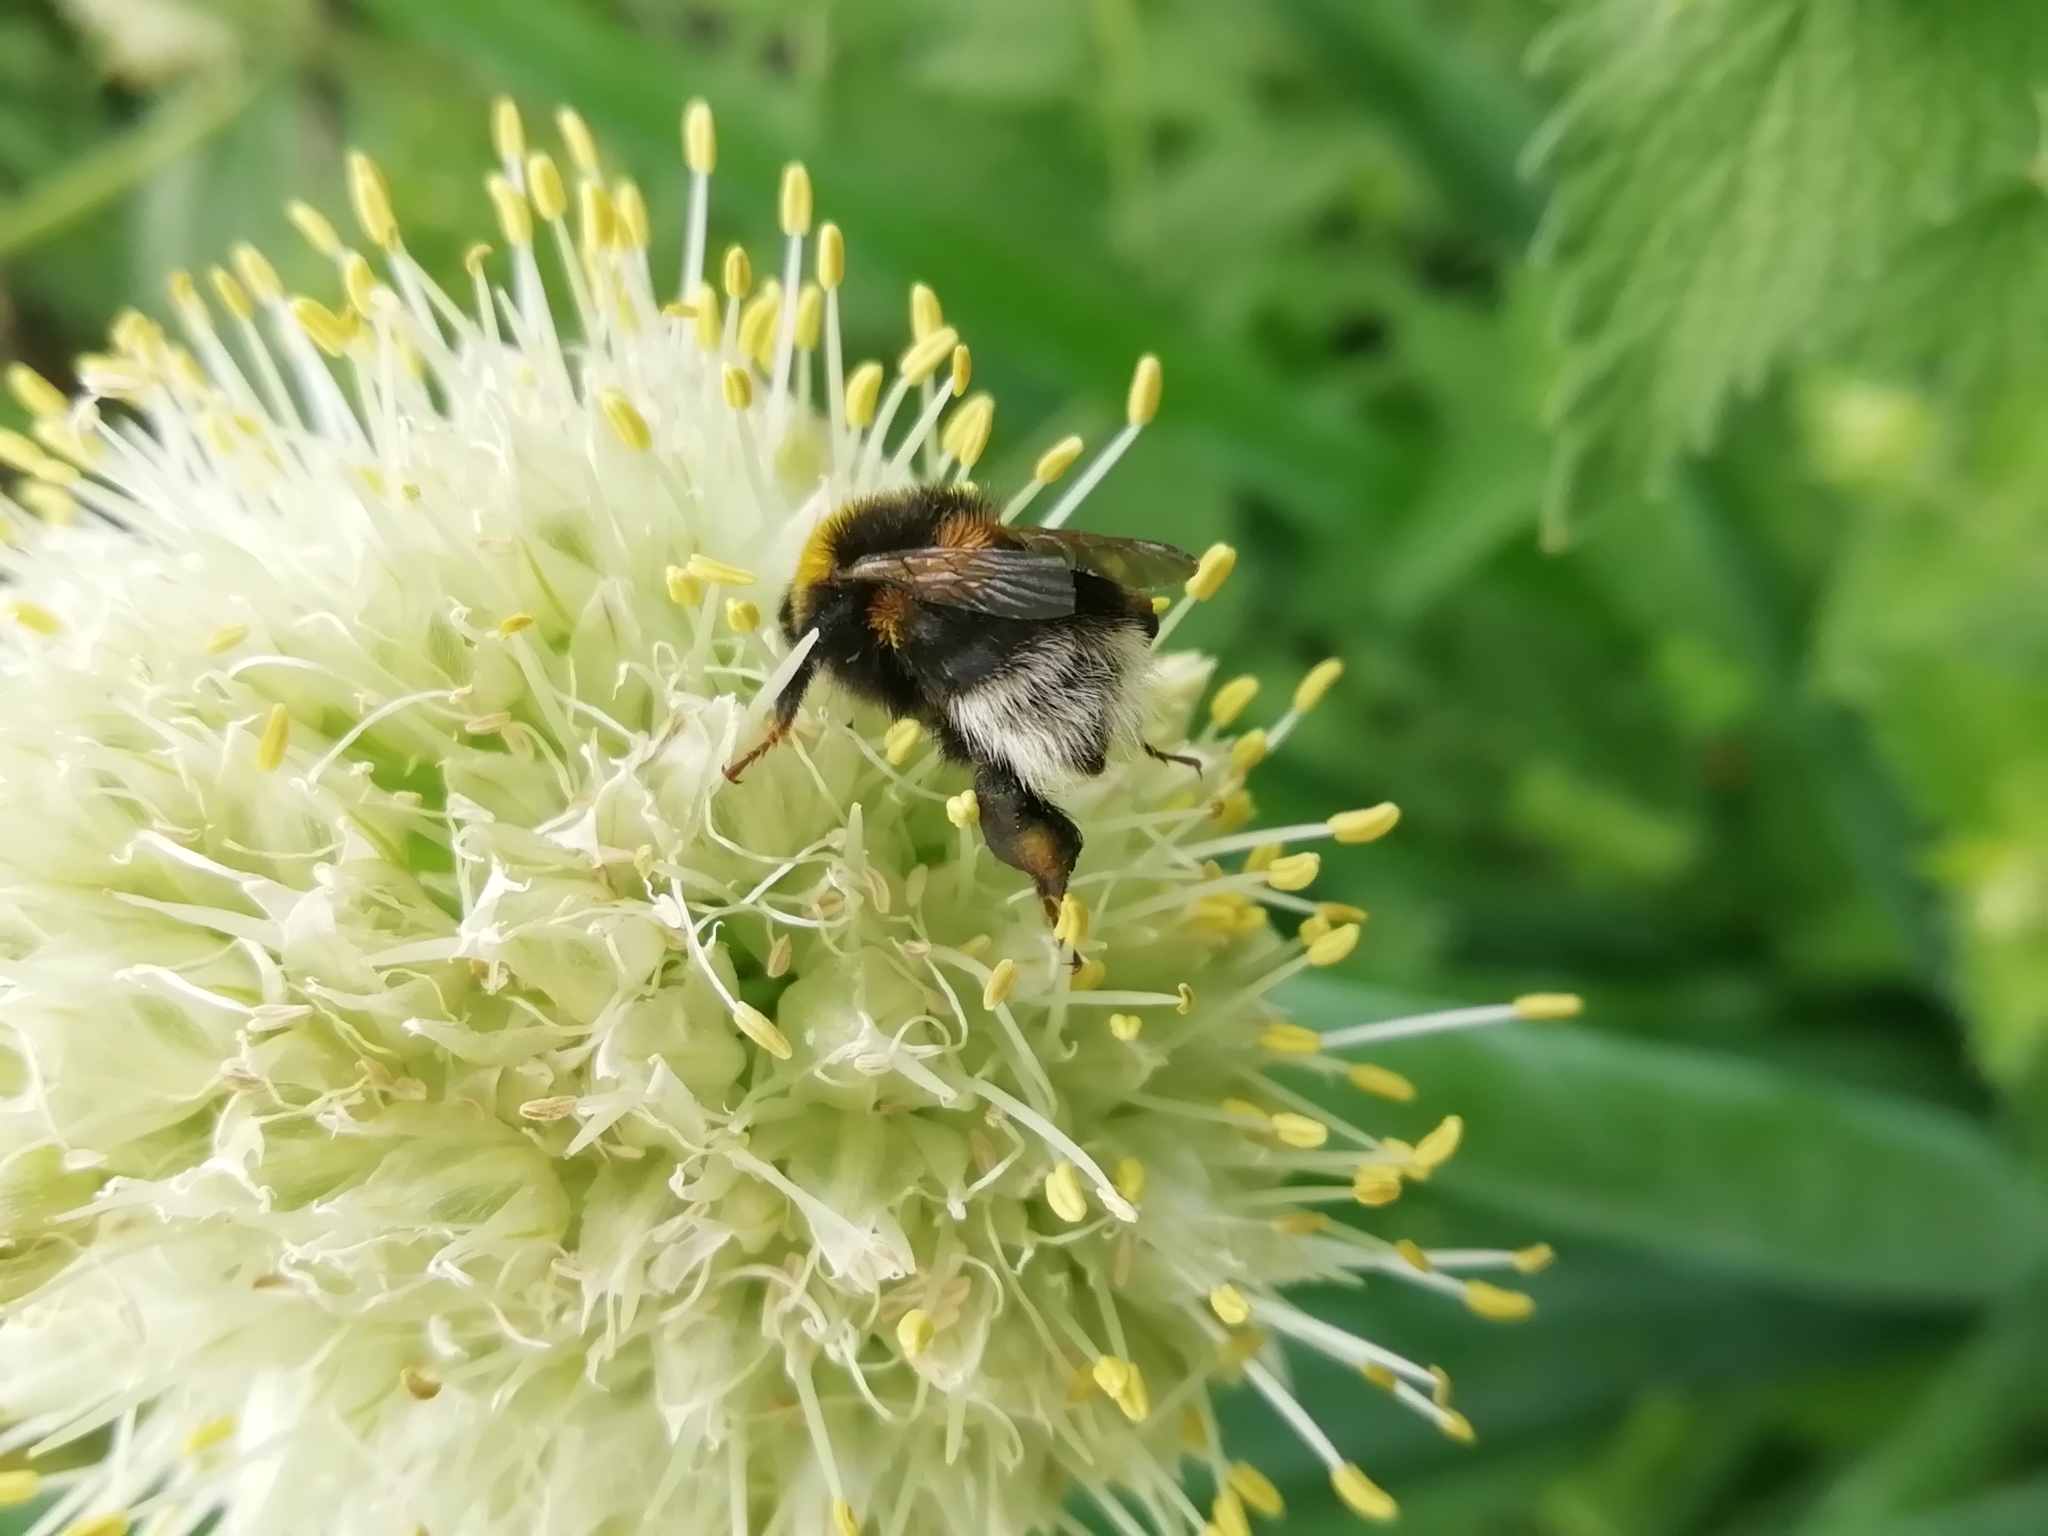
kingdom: Animalia
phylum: Arthropoda
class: Insecta
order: Hymenoptera
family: Apidae
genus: Bombus
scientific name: Bombus
